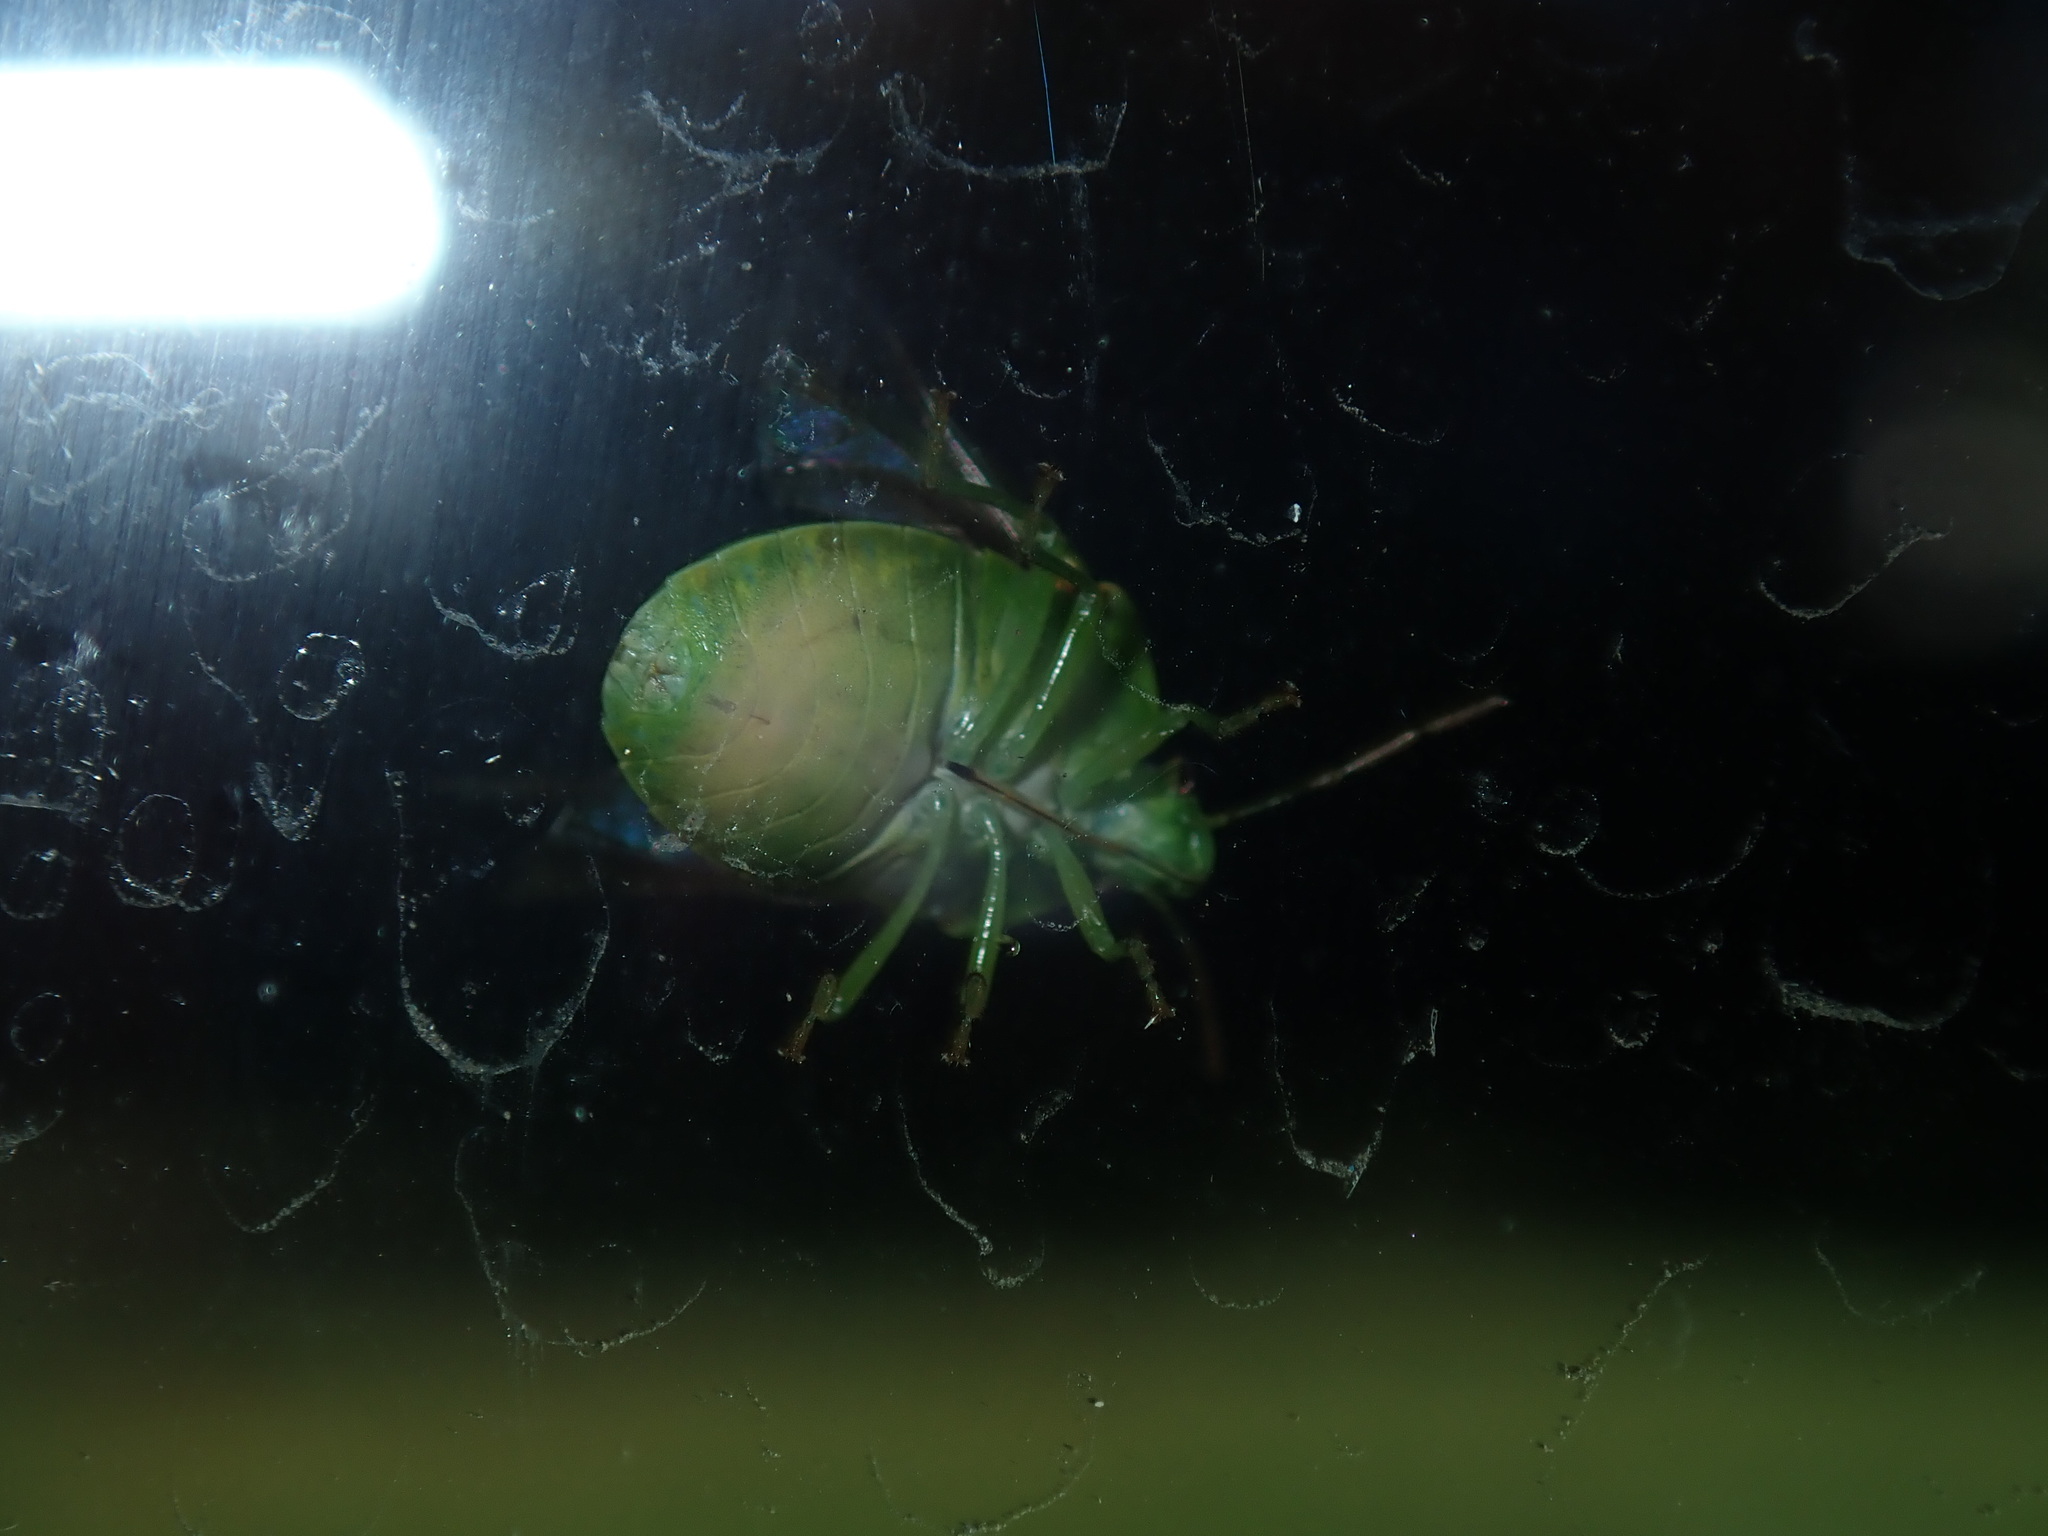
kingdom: Animalia
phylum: Arthropoda
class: Insecta
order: Hemiptera
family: Pentatomidae
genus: Plautia
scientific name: Plautia affinis
